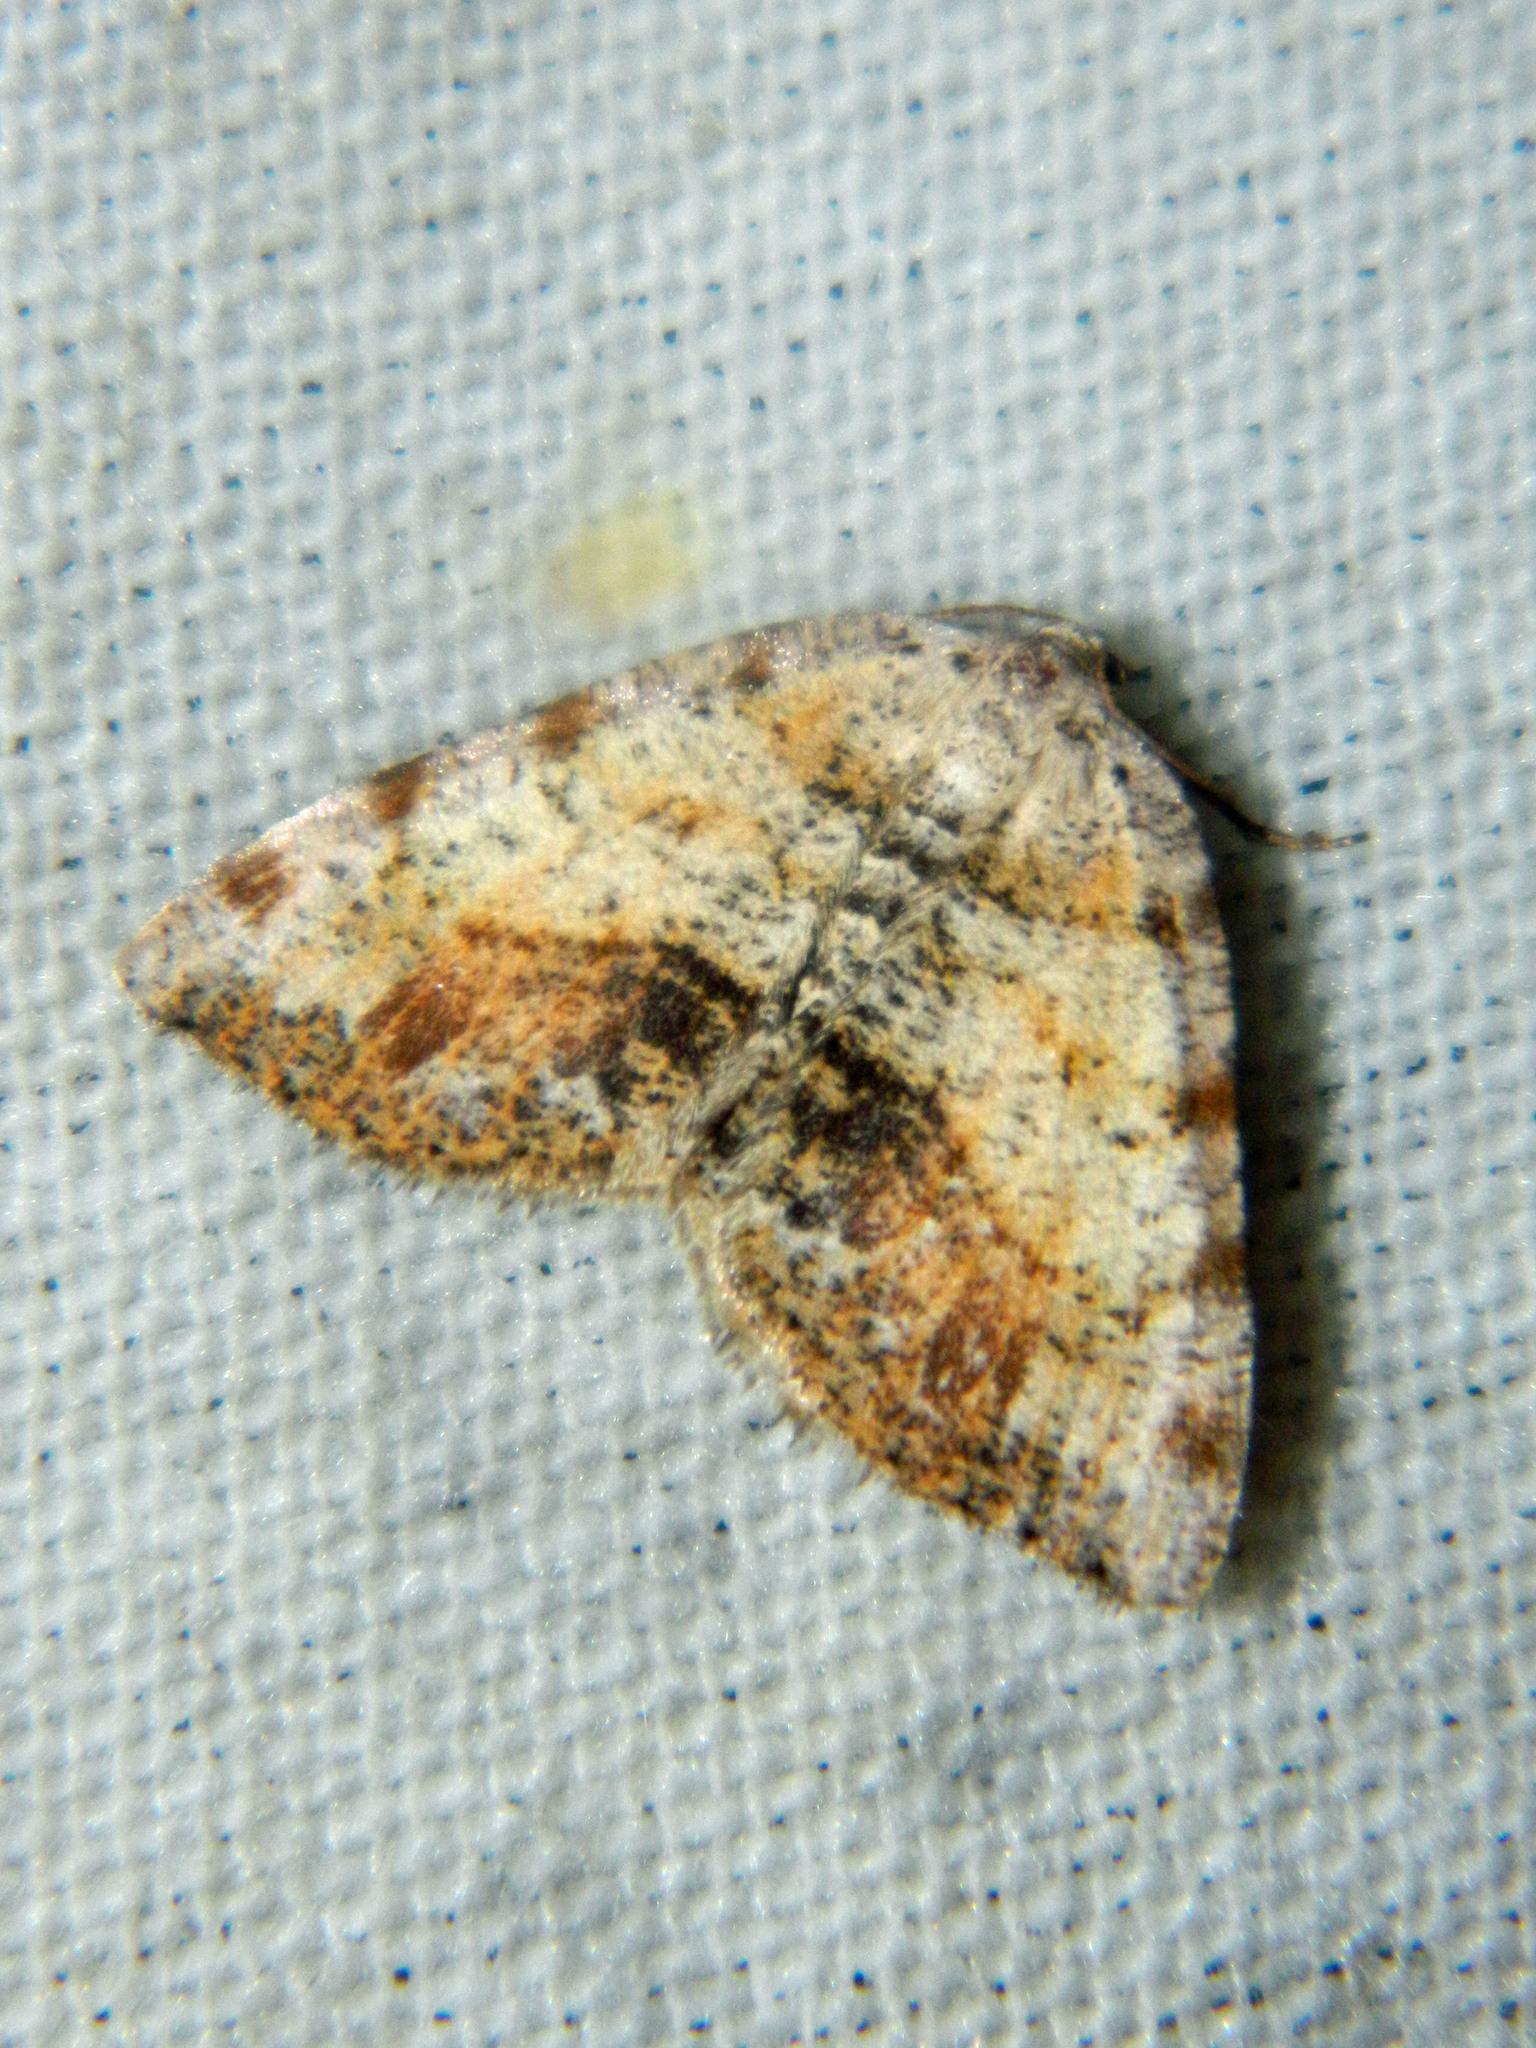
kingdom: Animalia
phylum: Arthropoda
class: Insecta
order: Lepidoptera
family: Geometridae
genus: Macaria
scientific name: Macaria exauspicata
